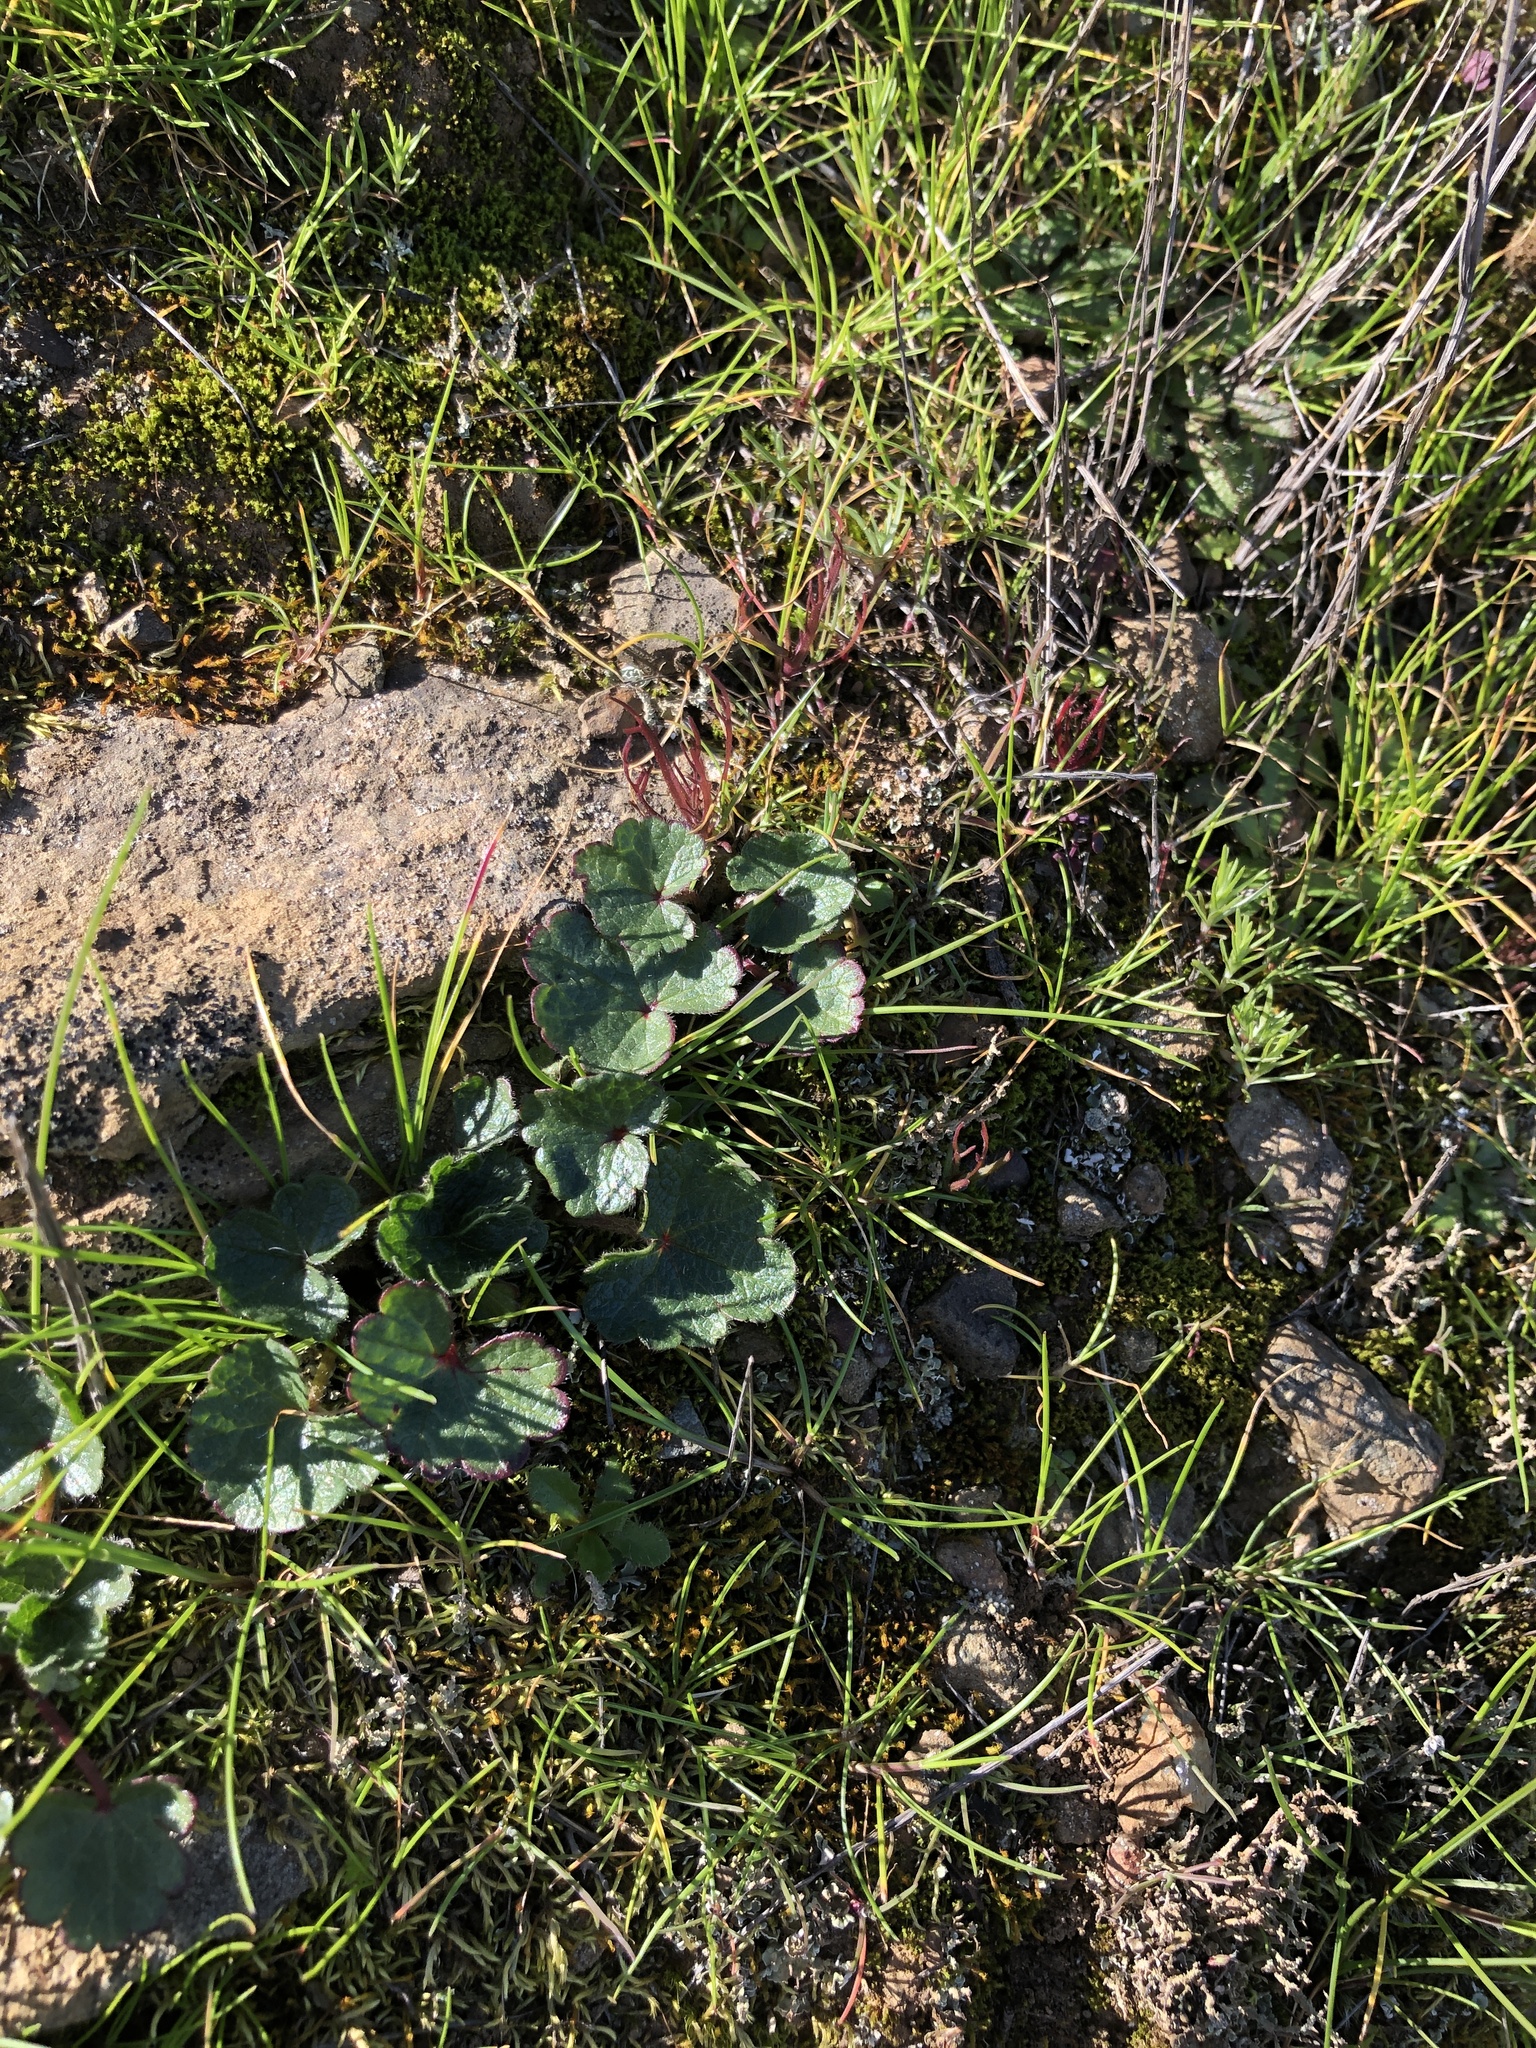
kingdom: Plantae
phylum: Tracheophyta
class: Magnoliopsida
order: Malvales
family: Malvaceae
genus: Sidalcea
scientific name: Sidalcea malviflora
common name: Greek mallow
